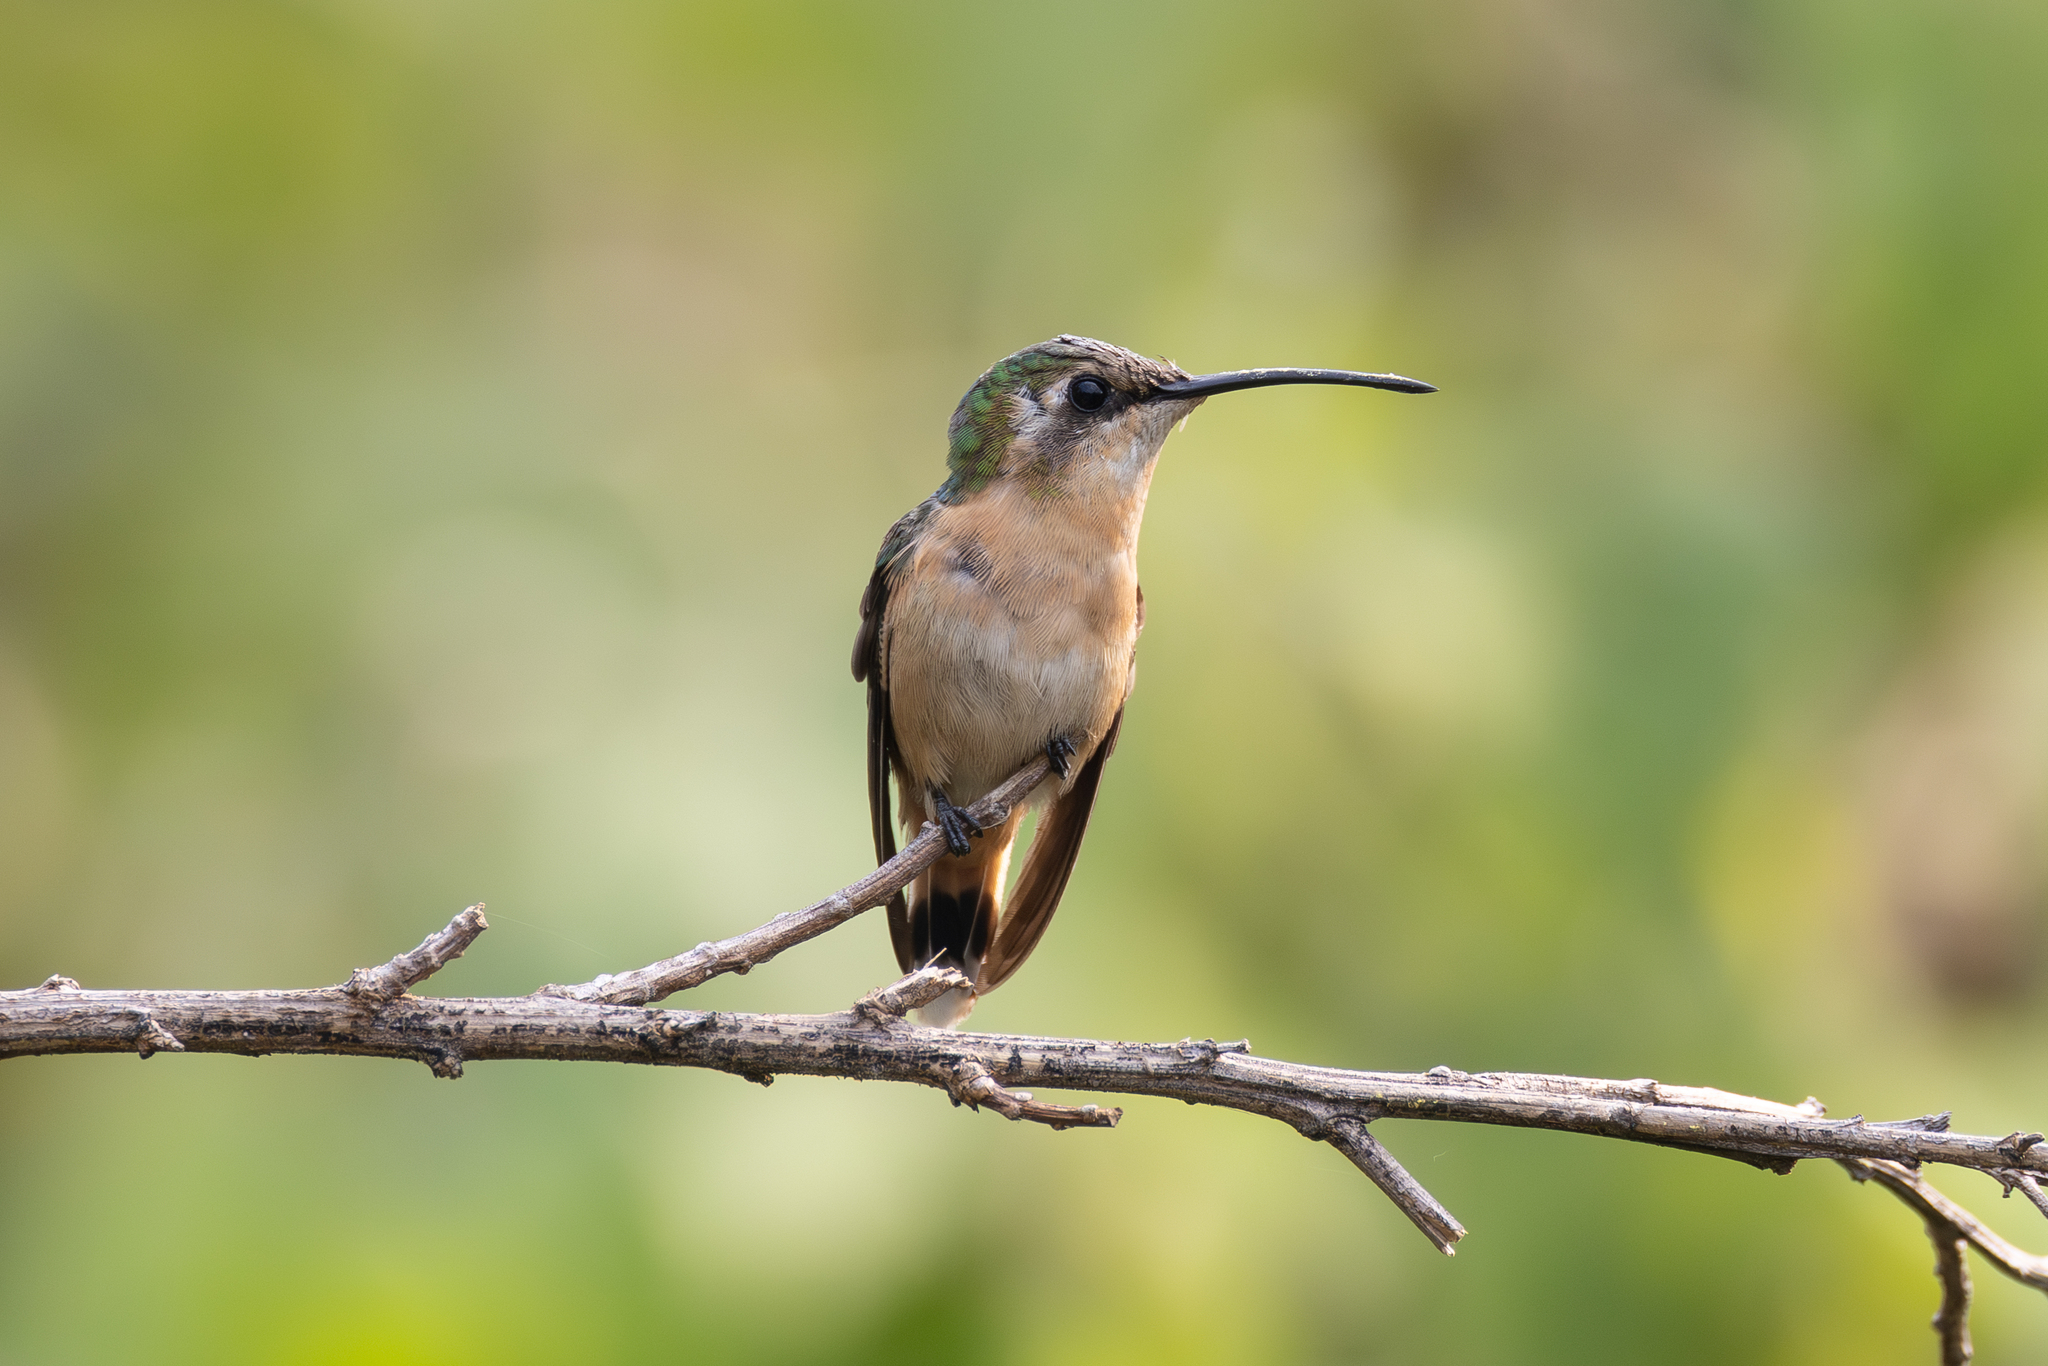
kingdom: Animalia
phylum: Chordata
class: Aves
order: Apodiformes
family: Trochilidae
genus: Doricha
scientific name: Doricha enicura
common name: Slender sheartail
